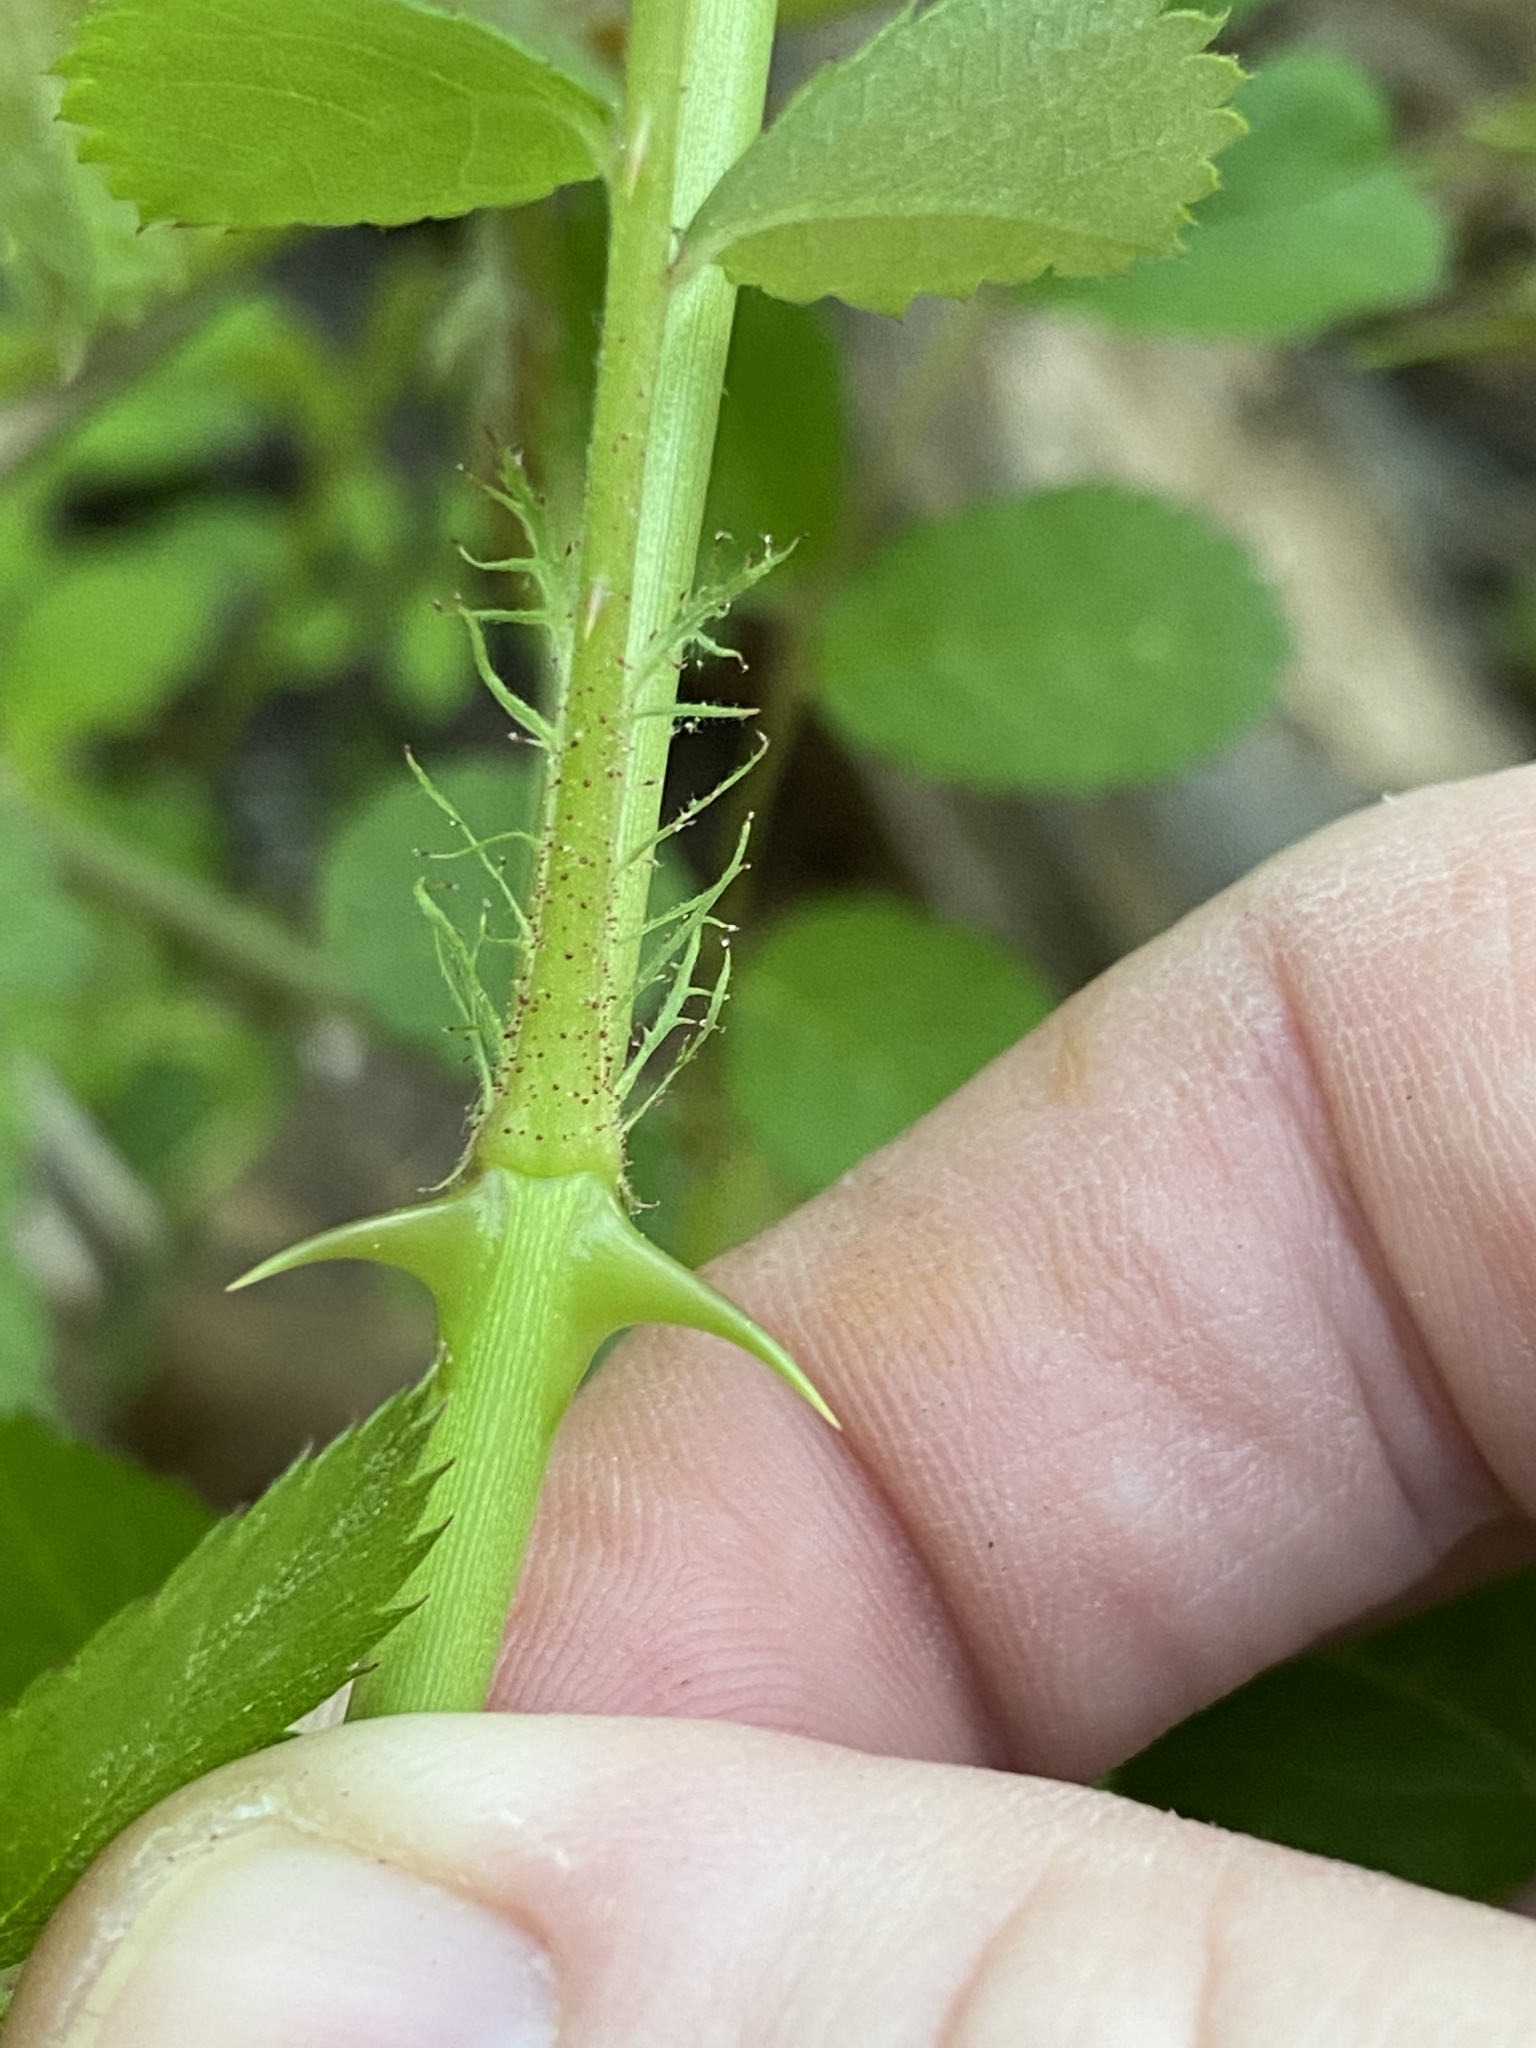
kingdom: Plantae
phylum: Tracheophyta
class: Magnoliopsida
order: Rosales
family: Rosaceae
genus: Rosa
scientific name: Rosa multiflora
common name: Multiflora rose
